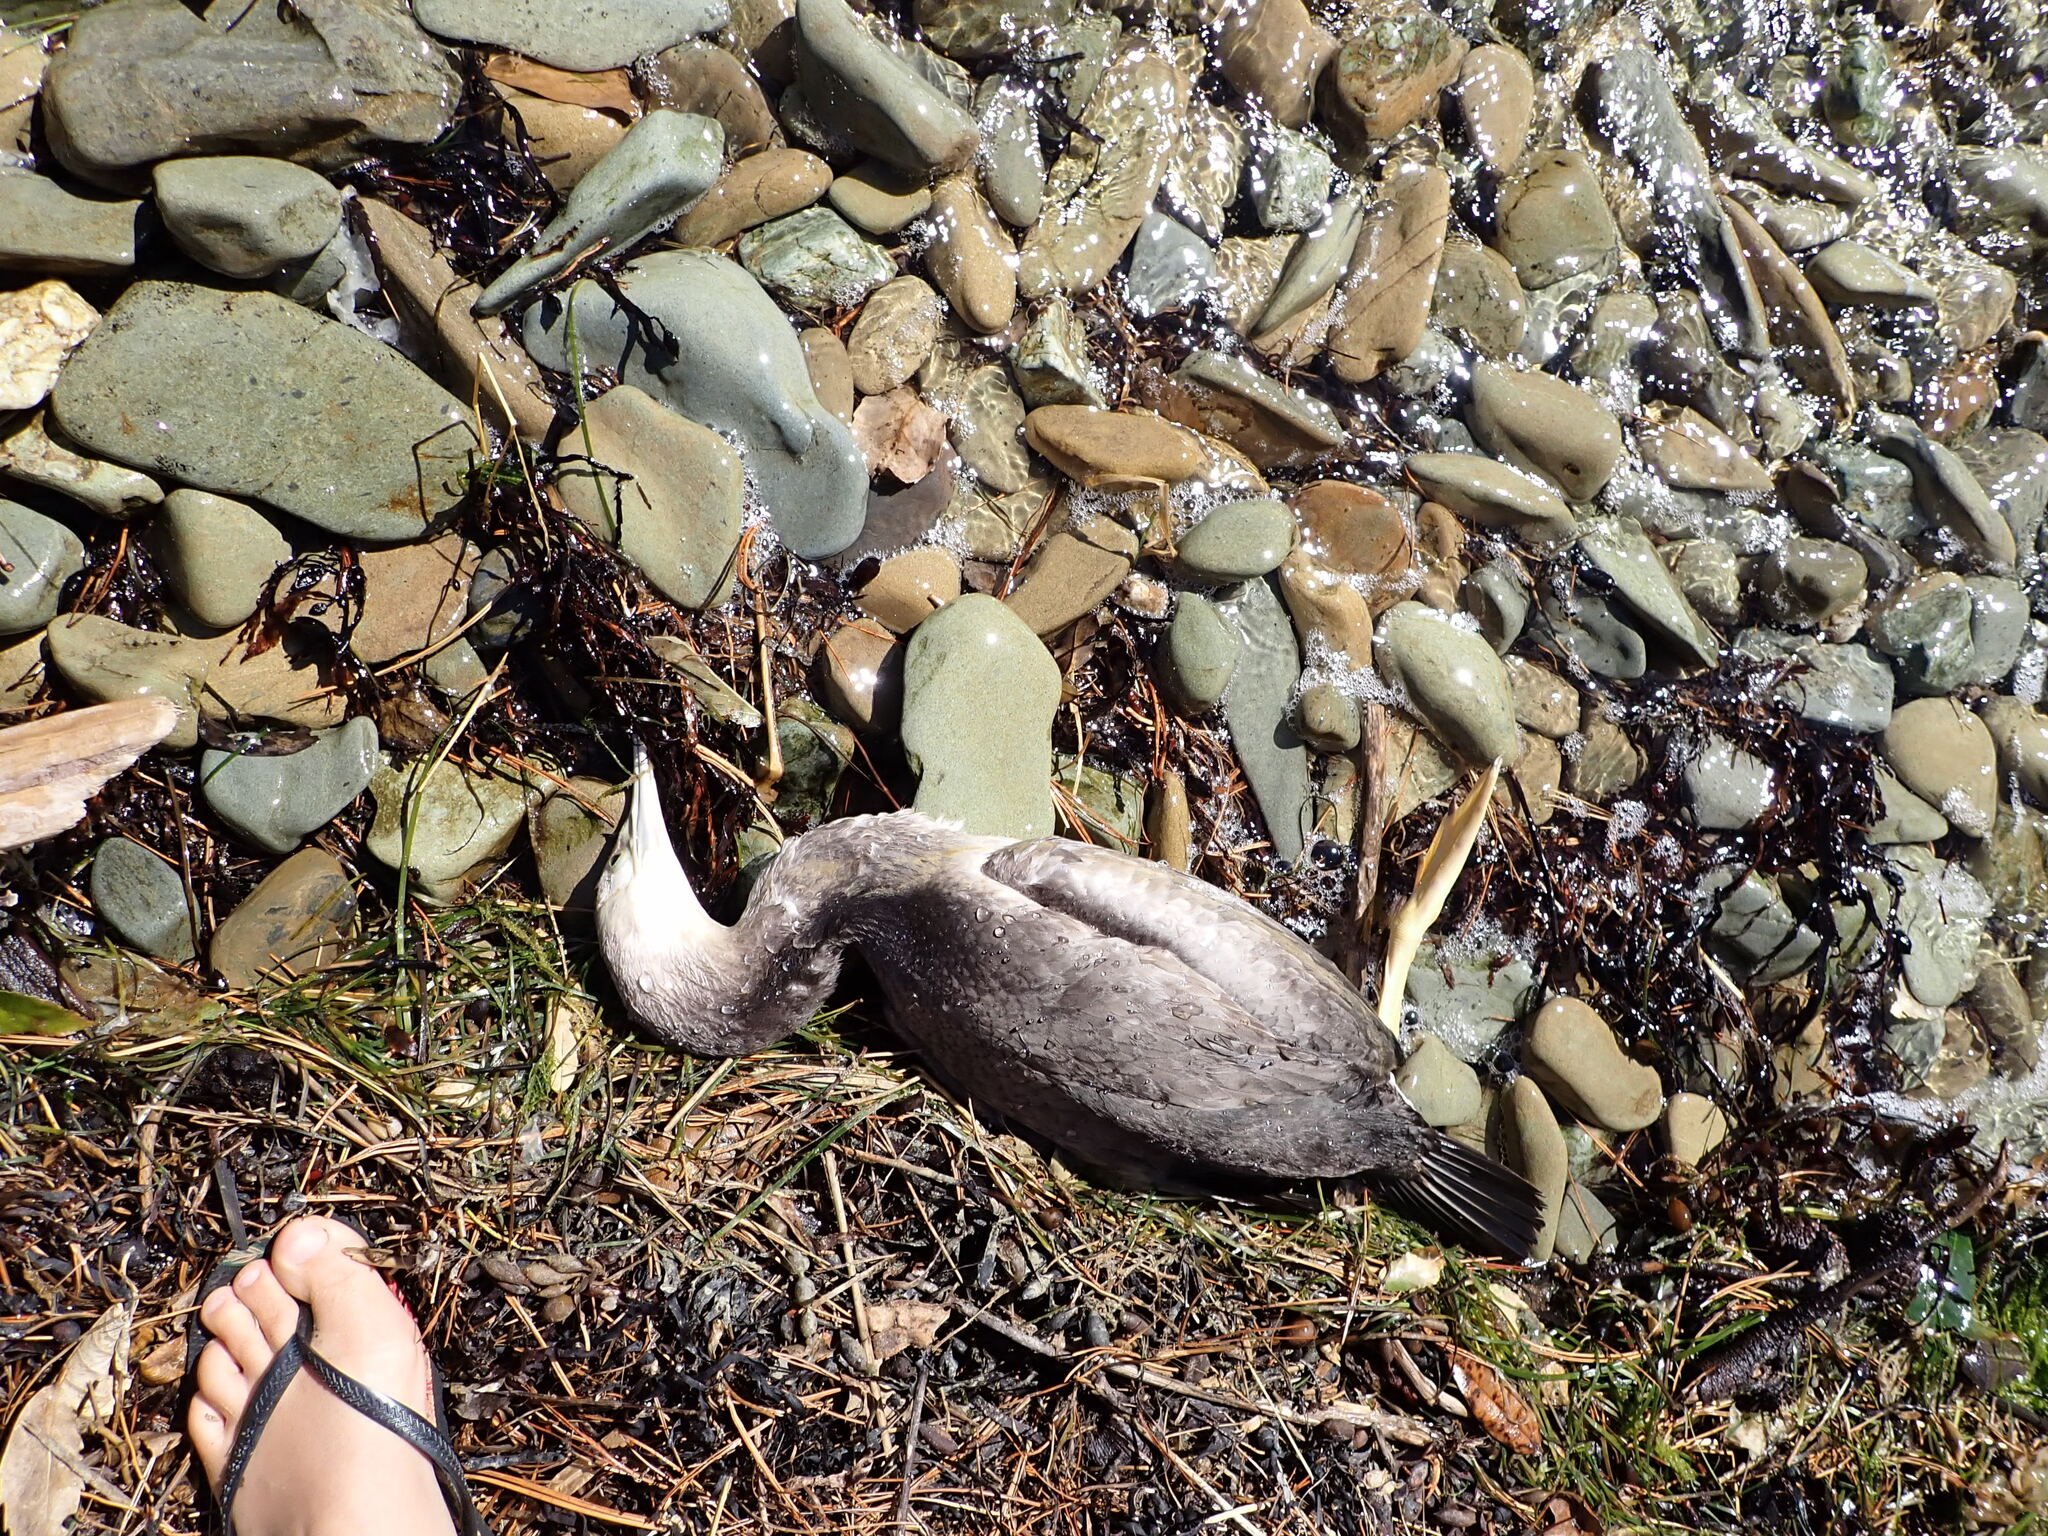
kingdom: Animalia
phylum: Chordata
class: Aves
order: Suliformes
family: Phalacrocoracidae
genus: Phalacrocorax
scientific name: Phalacrocorax punctatus
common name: Spotted shag
